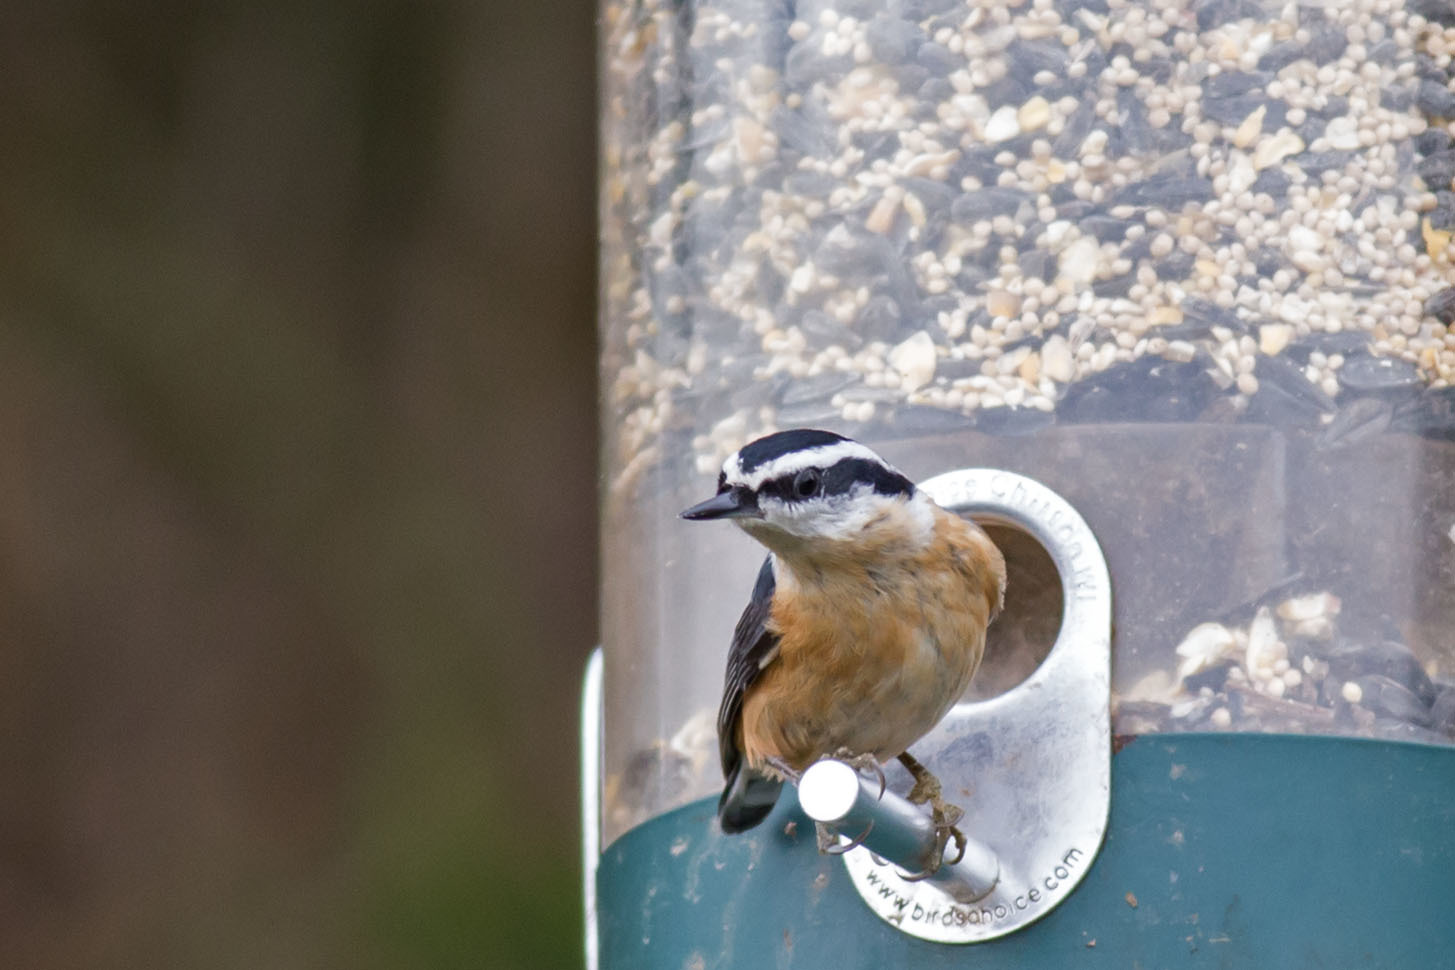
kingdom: Animalia
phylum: Chordata
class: Aves
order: Passeriformes
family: Sittidae
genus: Sitta
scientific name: Sitta canadensis
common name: Red-breasted nuthatch
